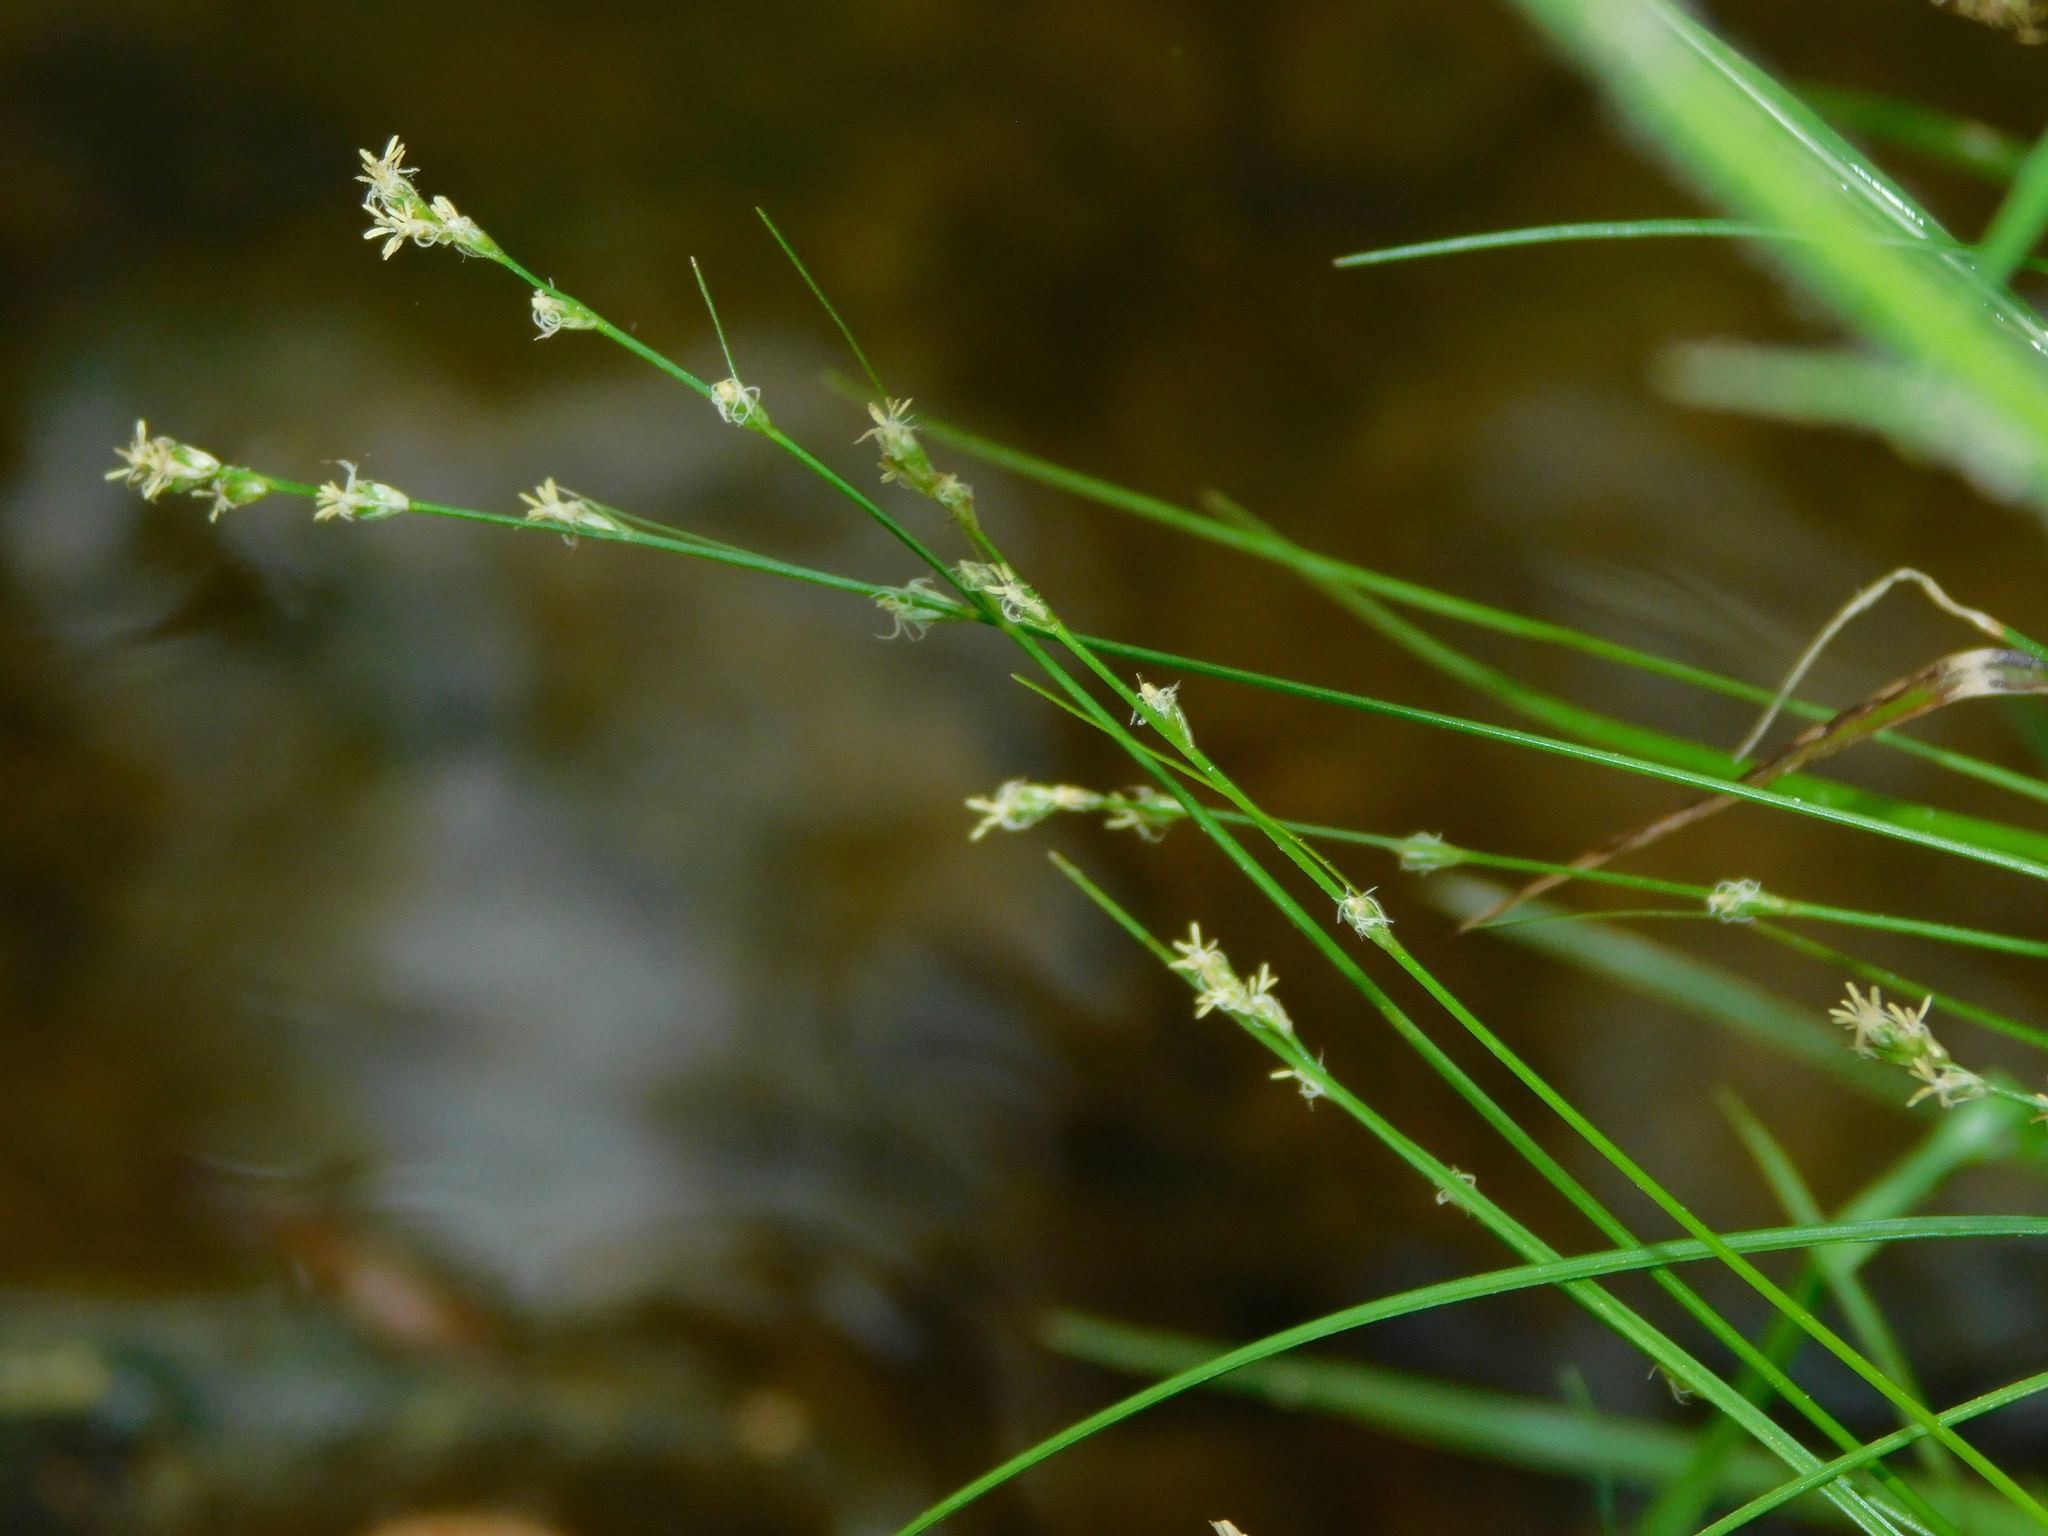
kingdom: Plantae
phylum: Tracheophyta
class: Liliopsida
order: Poales
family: Cyperaceae
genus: Carex
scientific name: Carex divulsa
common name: Grassland sedge
